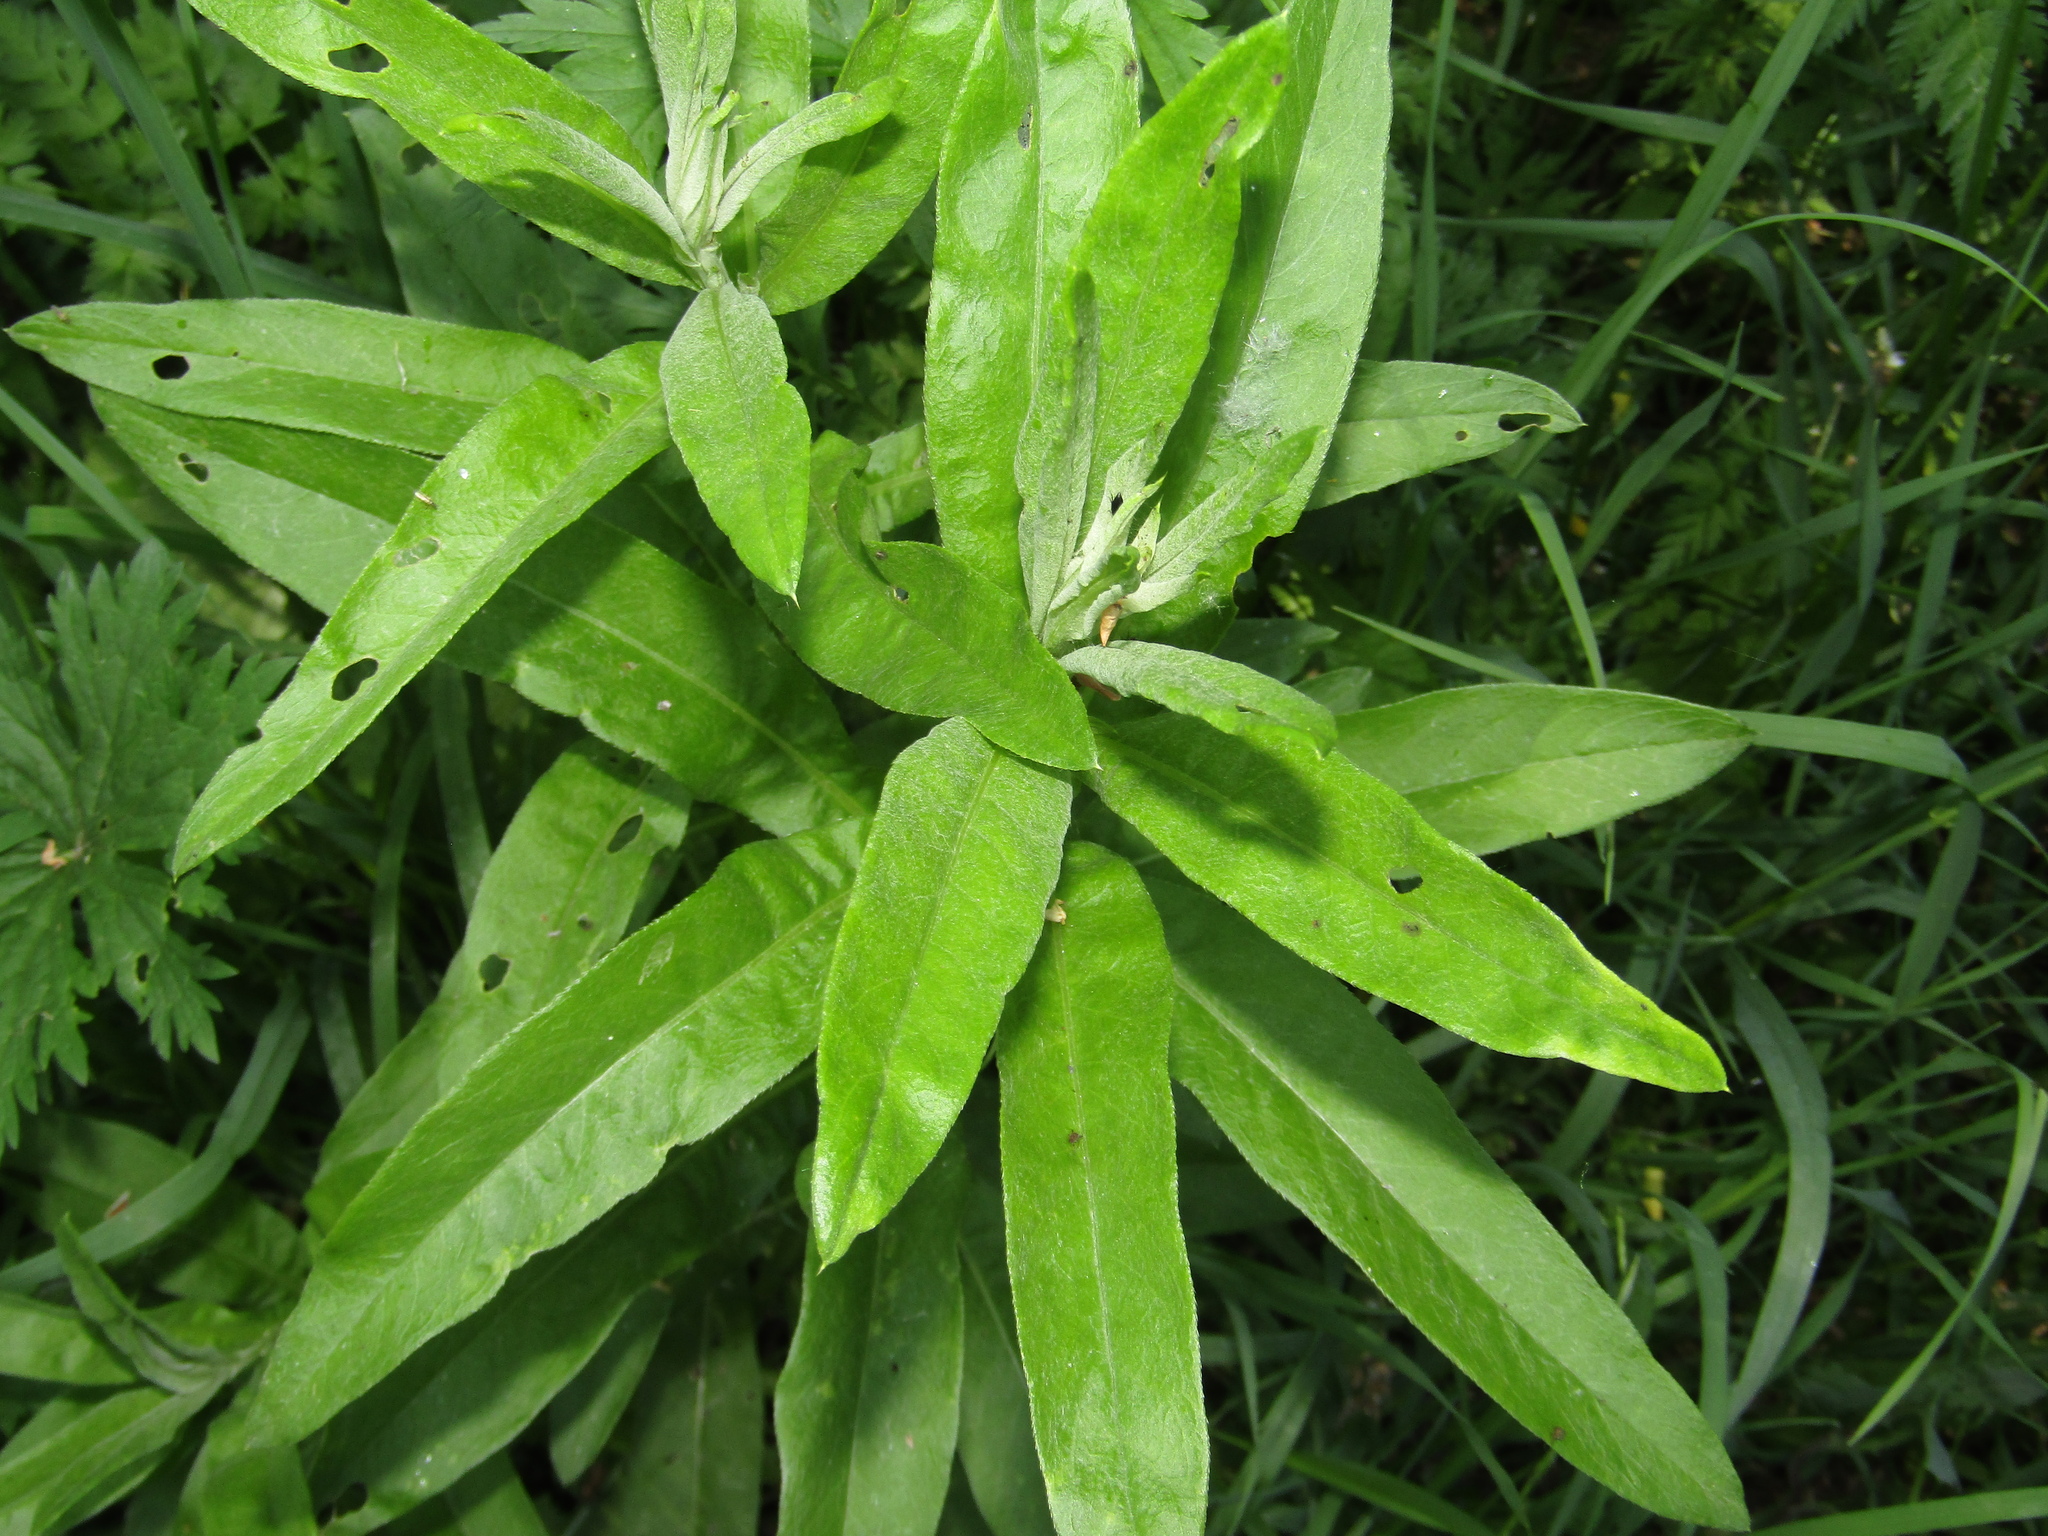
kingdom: Plantae
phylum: Tracheophyta
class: Magnoliopsida
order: Asterales
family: Asteraceae
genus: Cirsium
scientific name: Cirsium arvense
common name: Creeping thistle
